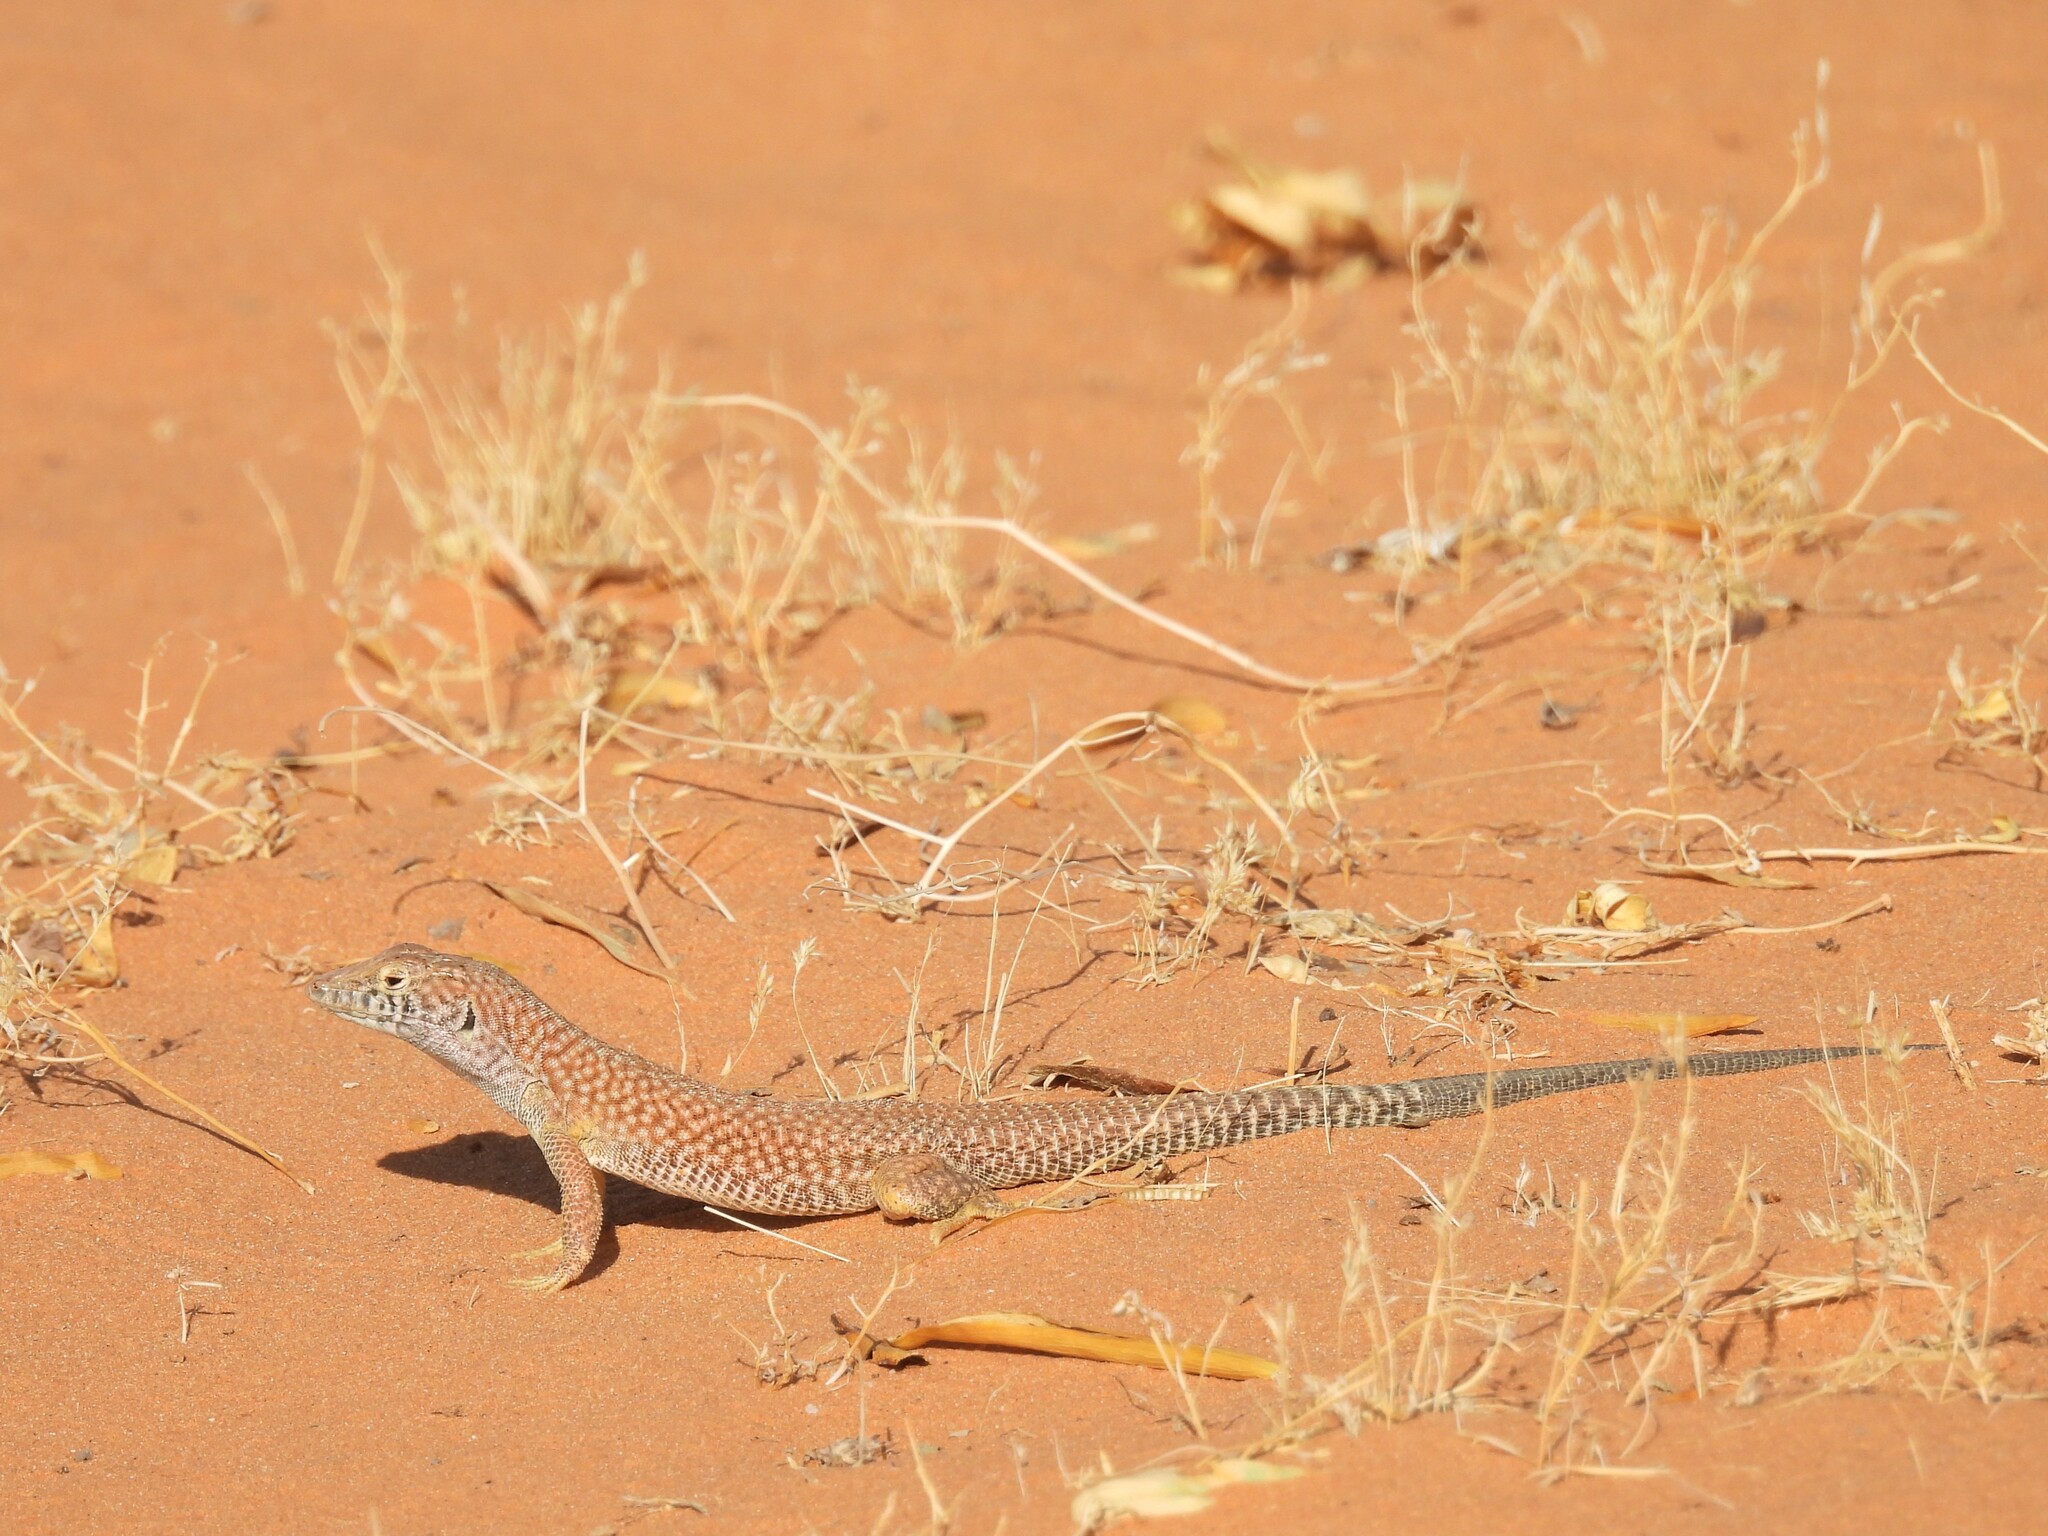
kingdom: Animalia
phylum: Chordata
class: Squamata
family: Lacertidae
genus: Acanthodactylus
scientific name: Acanthodactylus schmidti
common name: Schmidt's fringe-toed lizard
